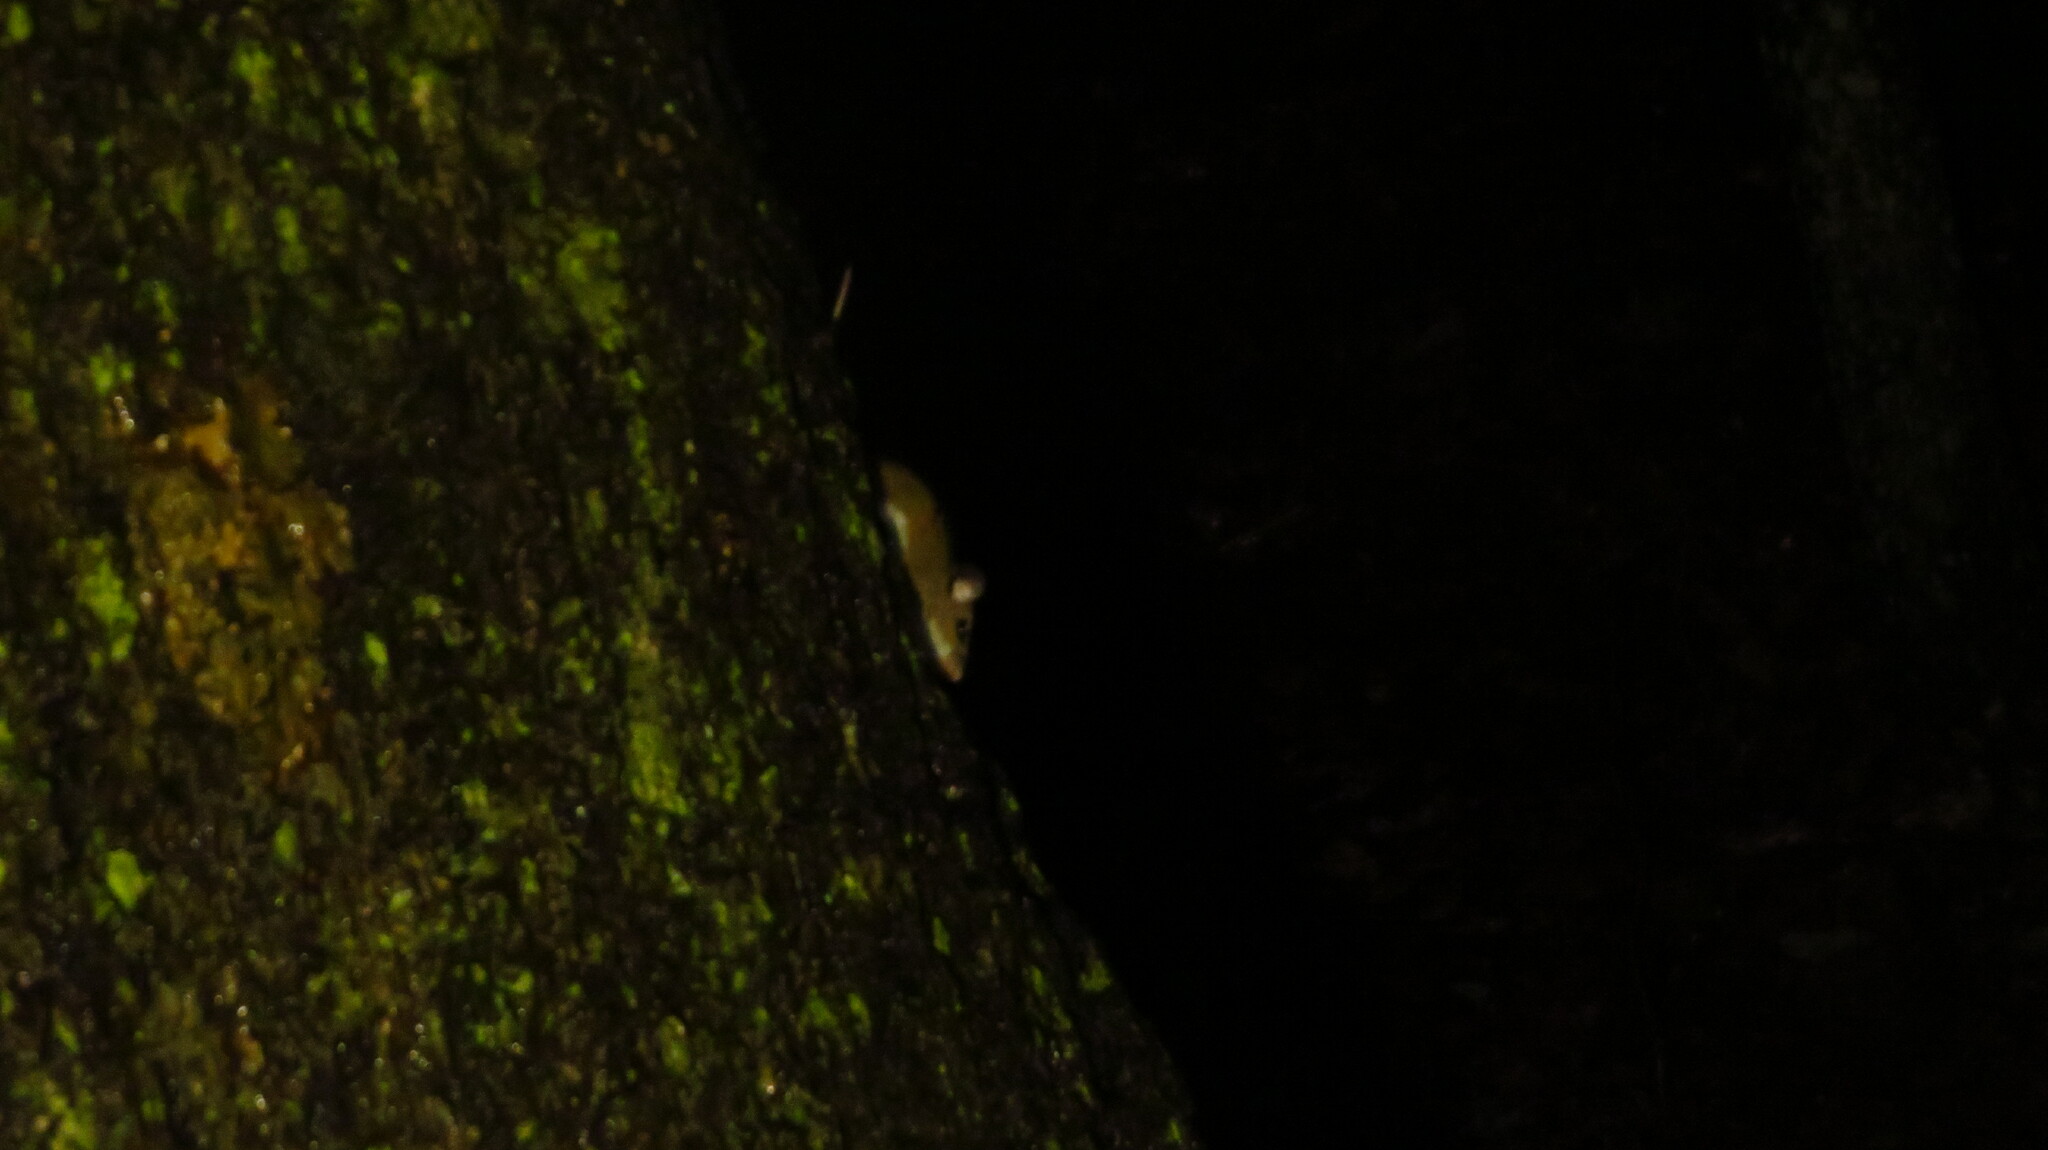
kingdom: Animalia
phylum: Chordata
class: Mammalia
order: Rodentia
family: Cricetidae
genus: Peromyscus
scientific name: Peromyscus leucopus
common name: White-footed deermouse
